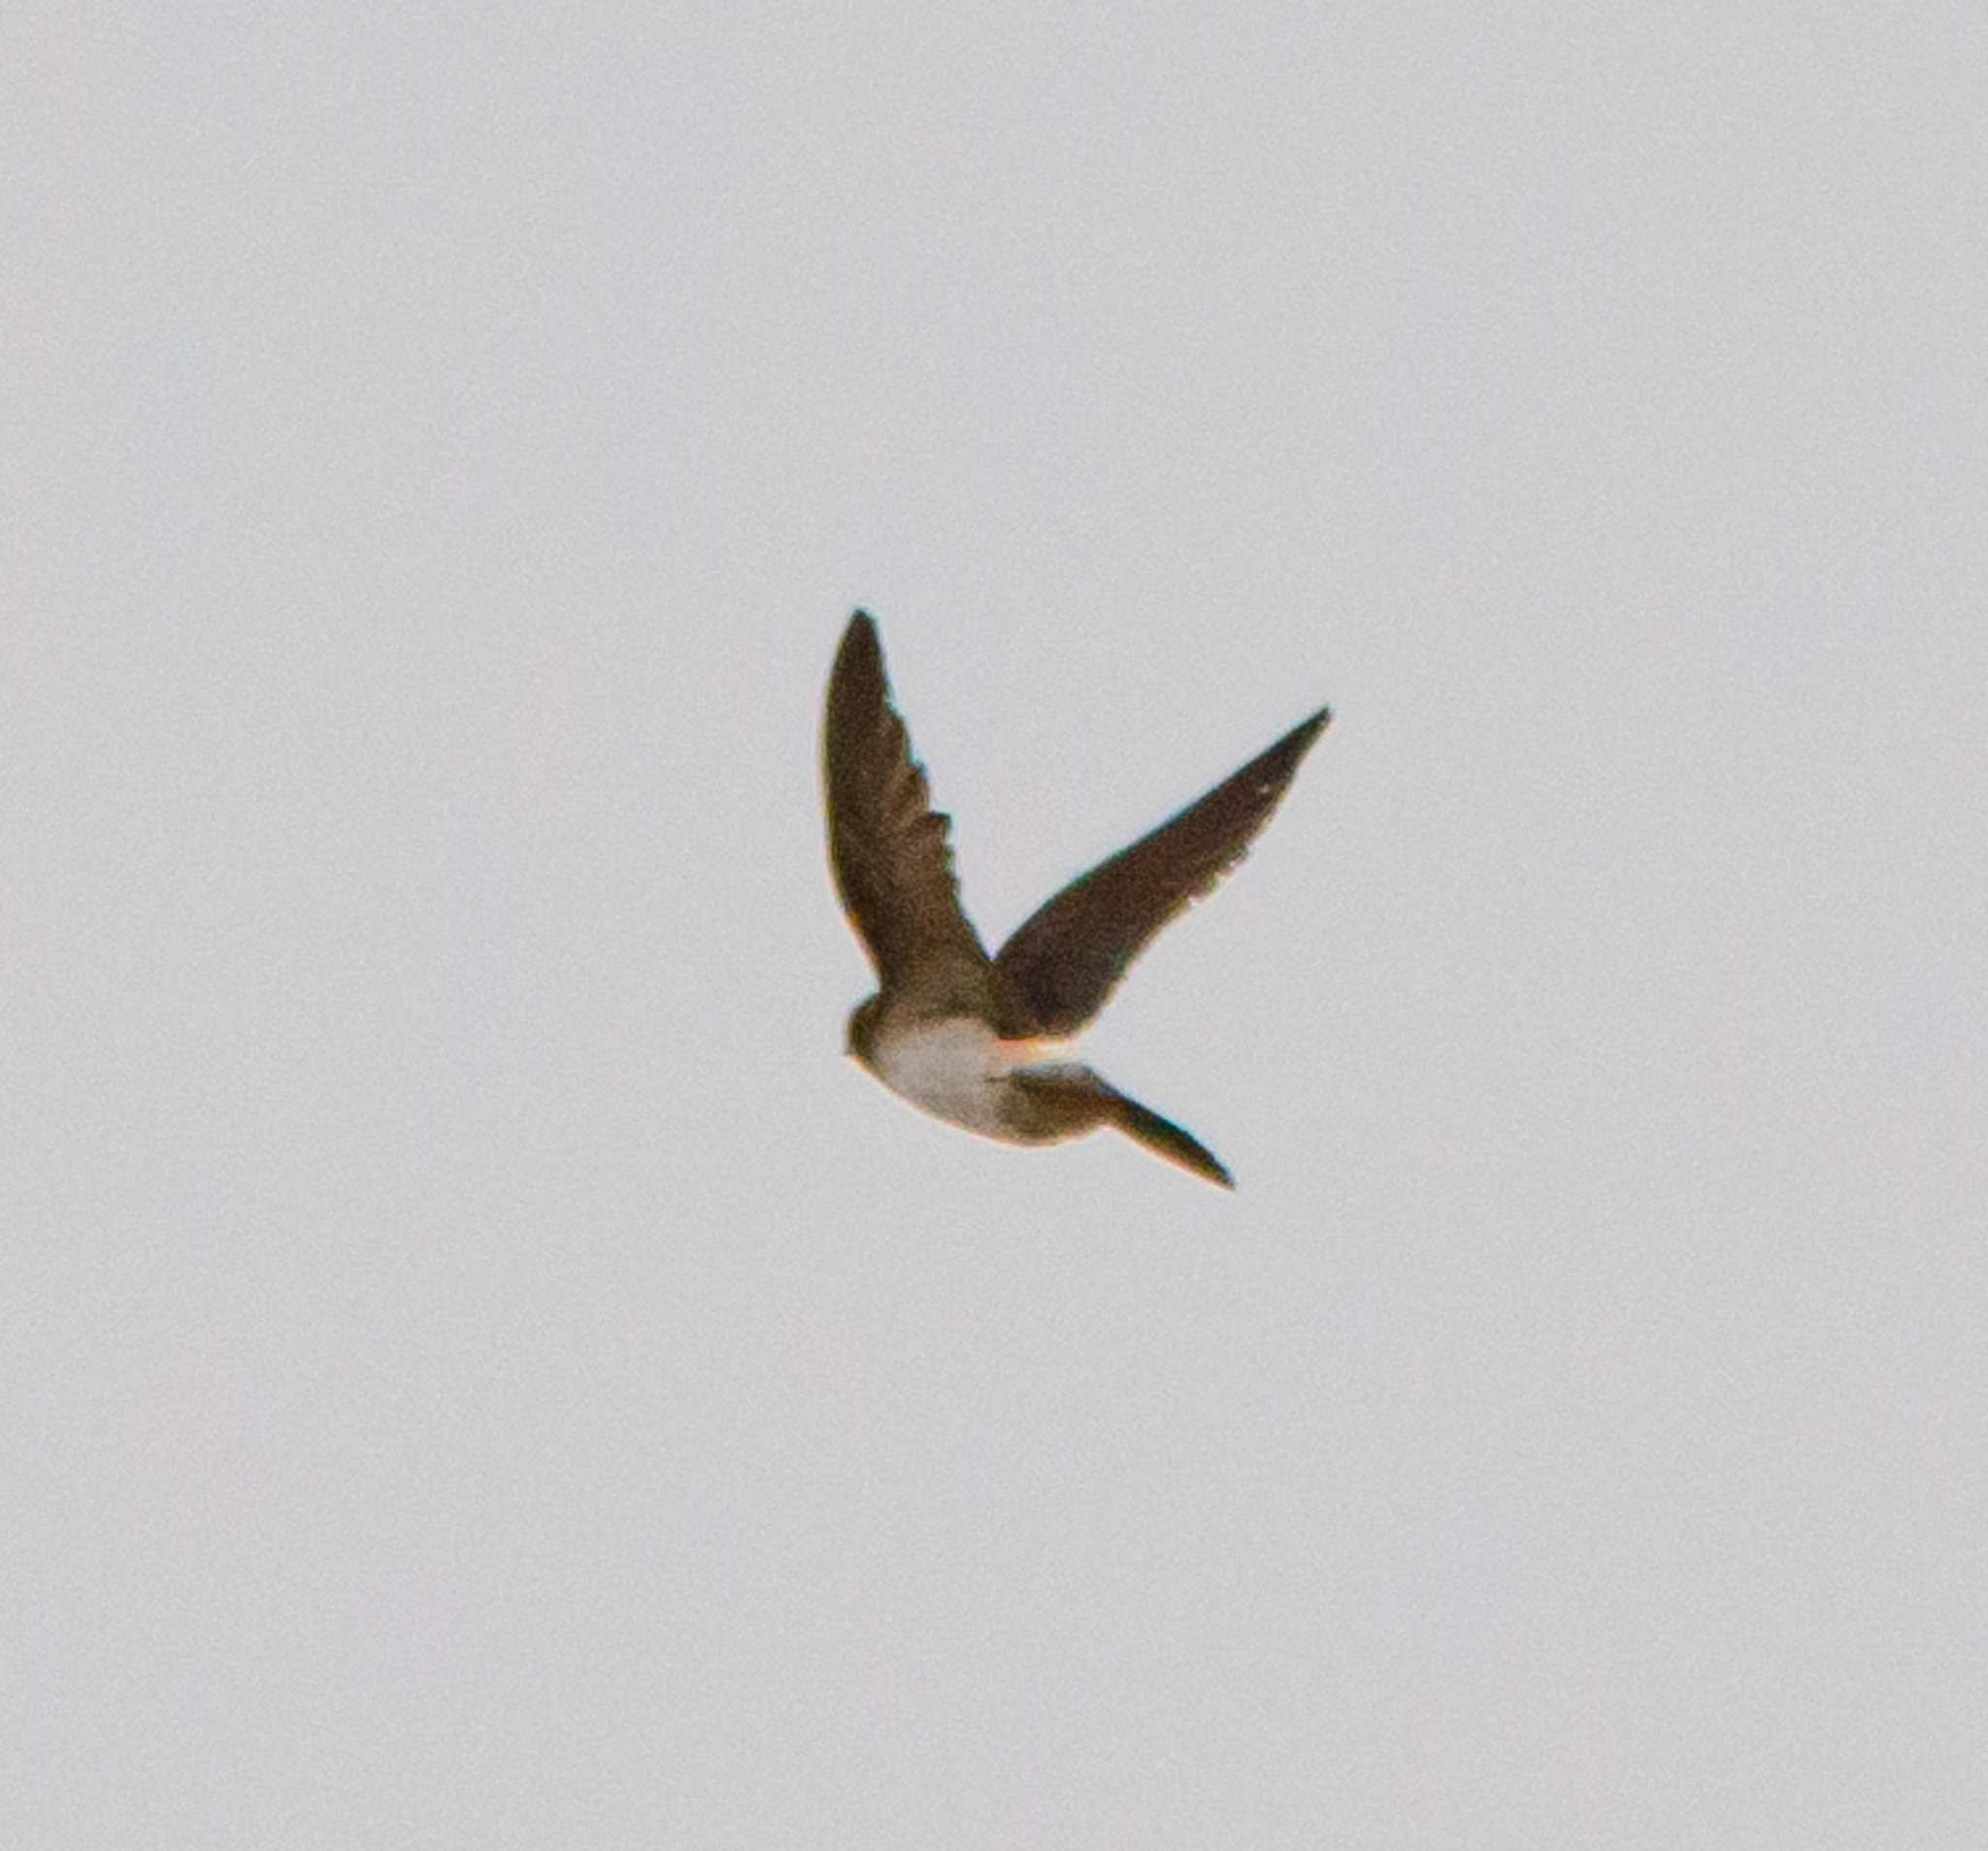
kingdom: Animalia
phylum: Chordata
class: Aves
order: Passeriformes
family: Hirundinidae
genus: Petrochelidon
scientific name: Petrochelidon pyrrhonota
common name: American cliff swallow
